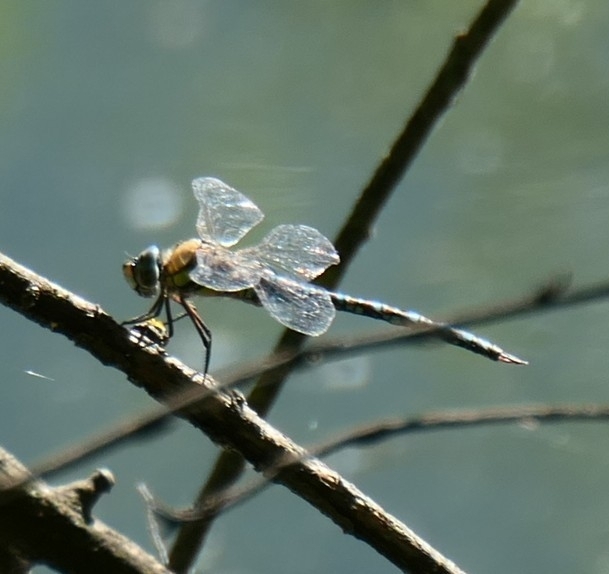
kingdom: Animalia
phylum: Arthropoda
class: Insecta
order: Odonata
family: Aeshnidae
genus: Aeshna
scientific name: Aeshna mixta
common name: Migrant hawker
